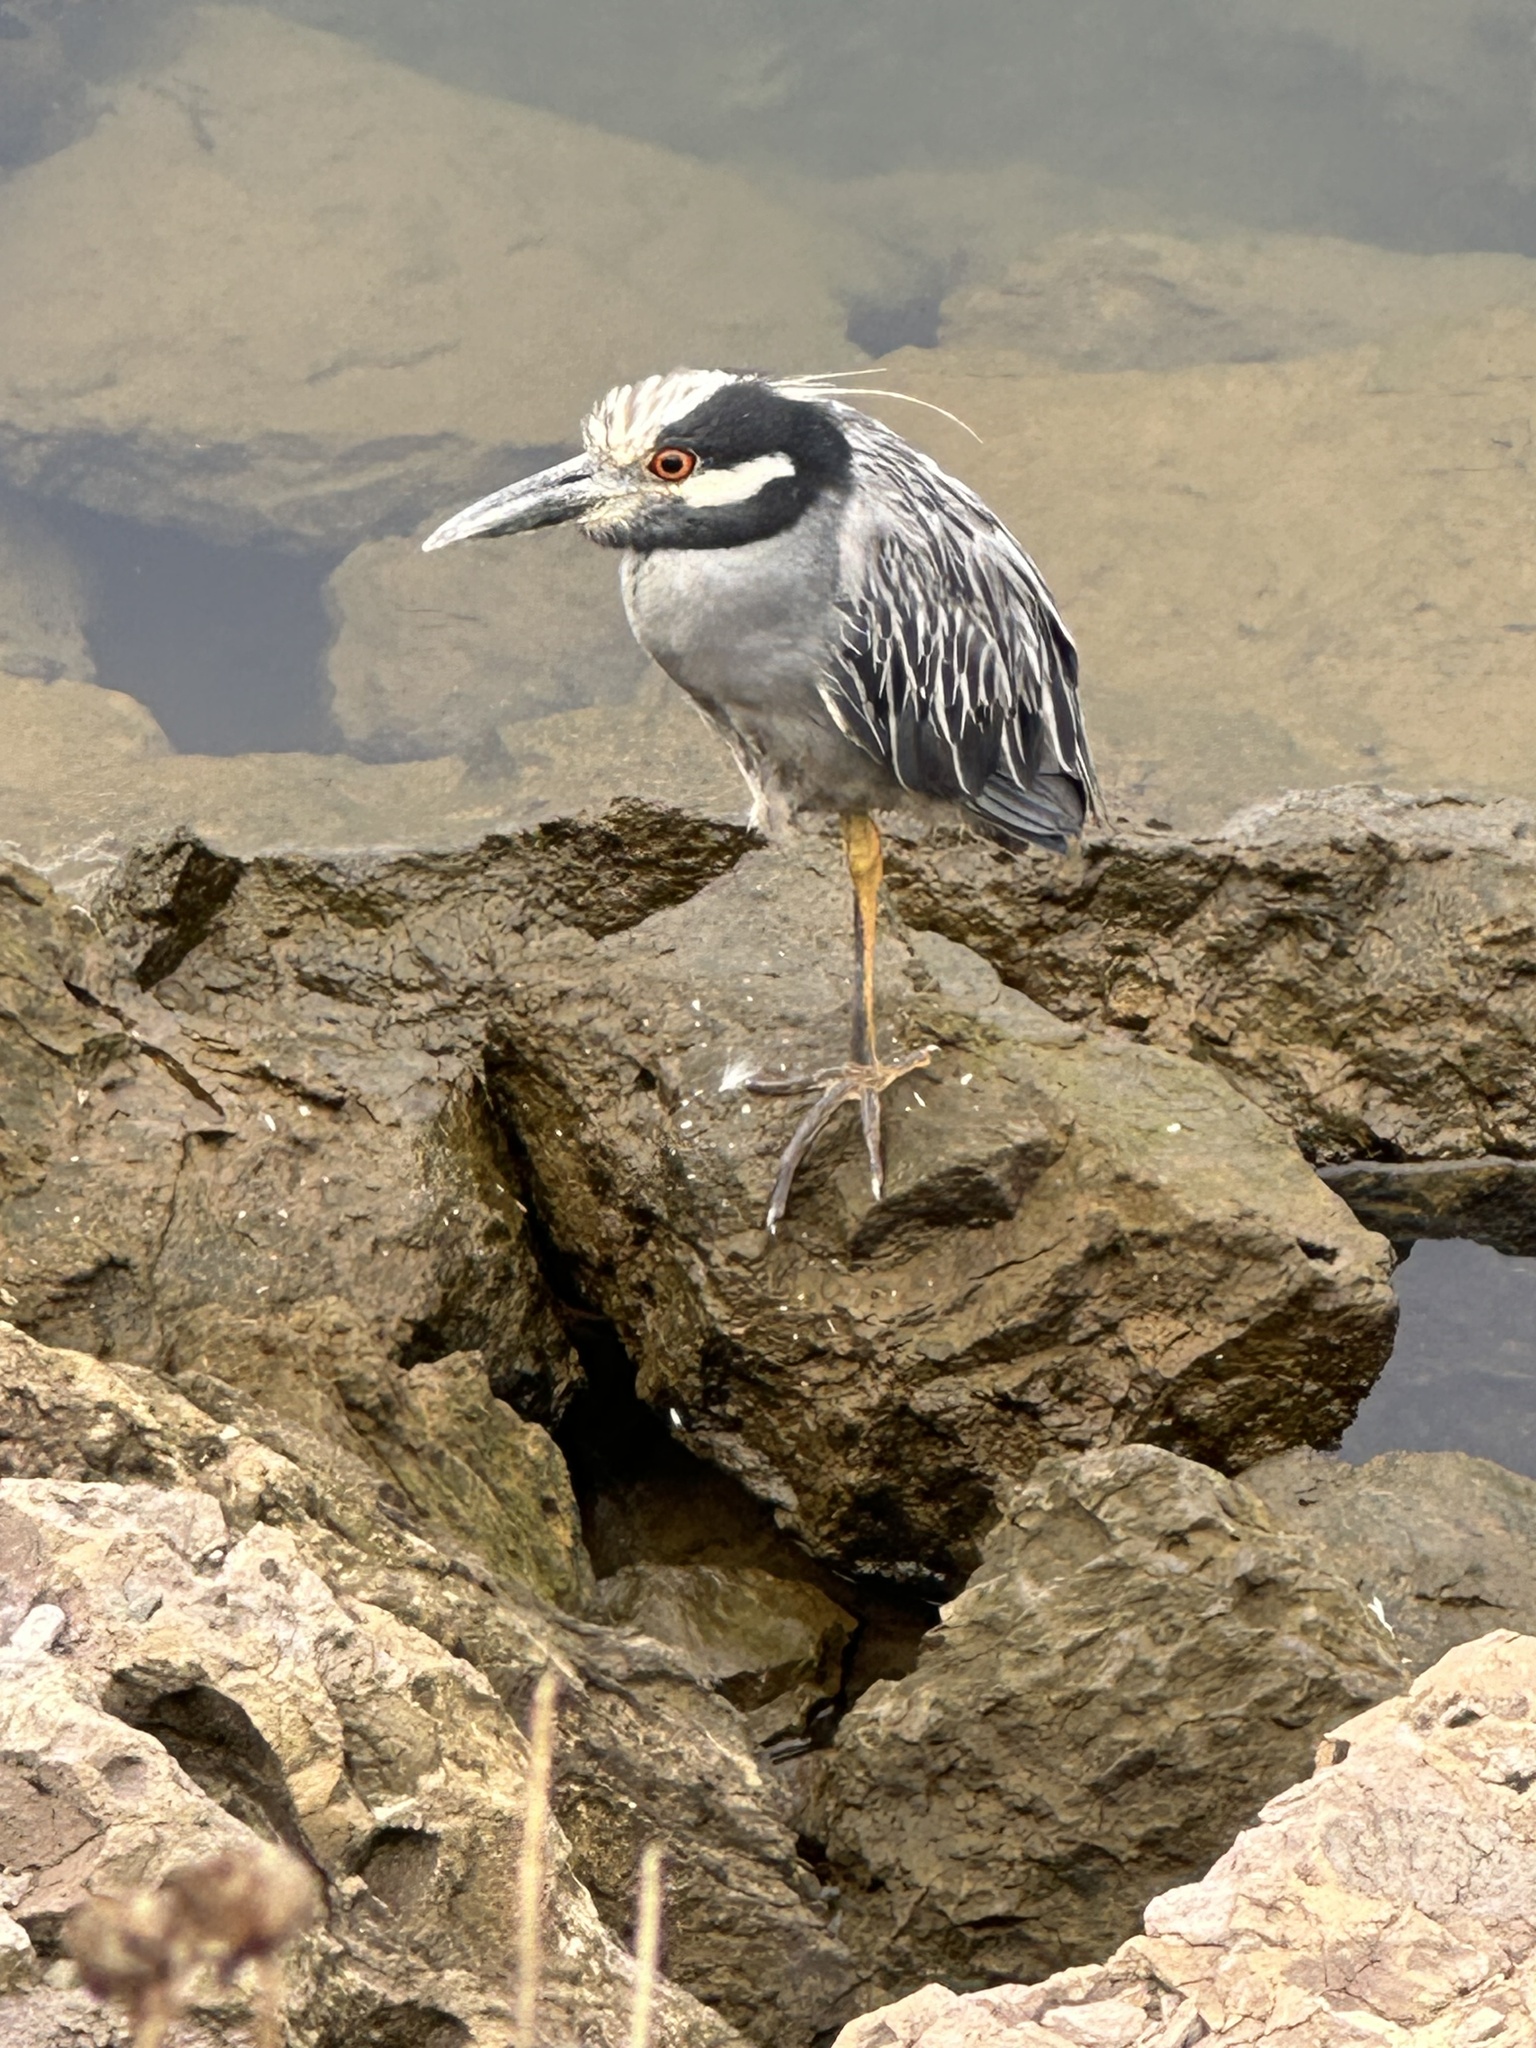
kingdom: Animalia
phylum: Chordata
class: Aves
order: Pelecaniformes
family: Ardeidae
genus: Nyctanassa
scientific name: Nyctanassa violacea
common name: Yellow-crowned night heron
